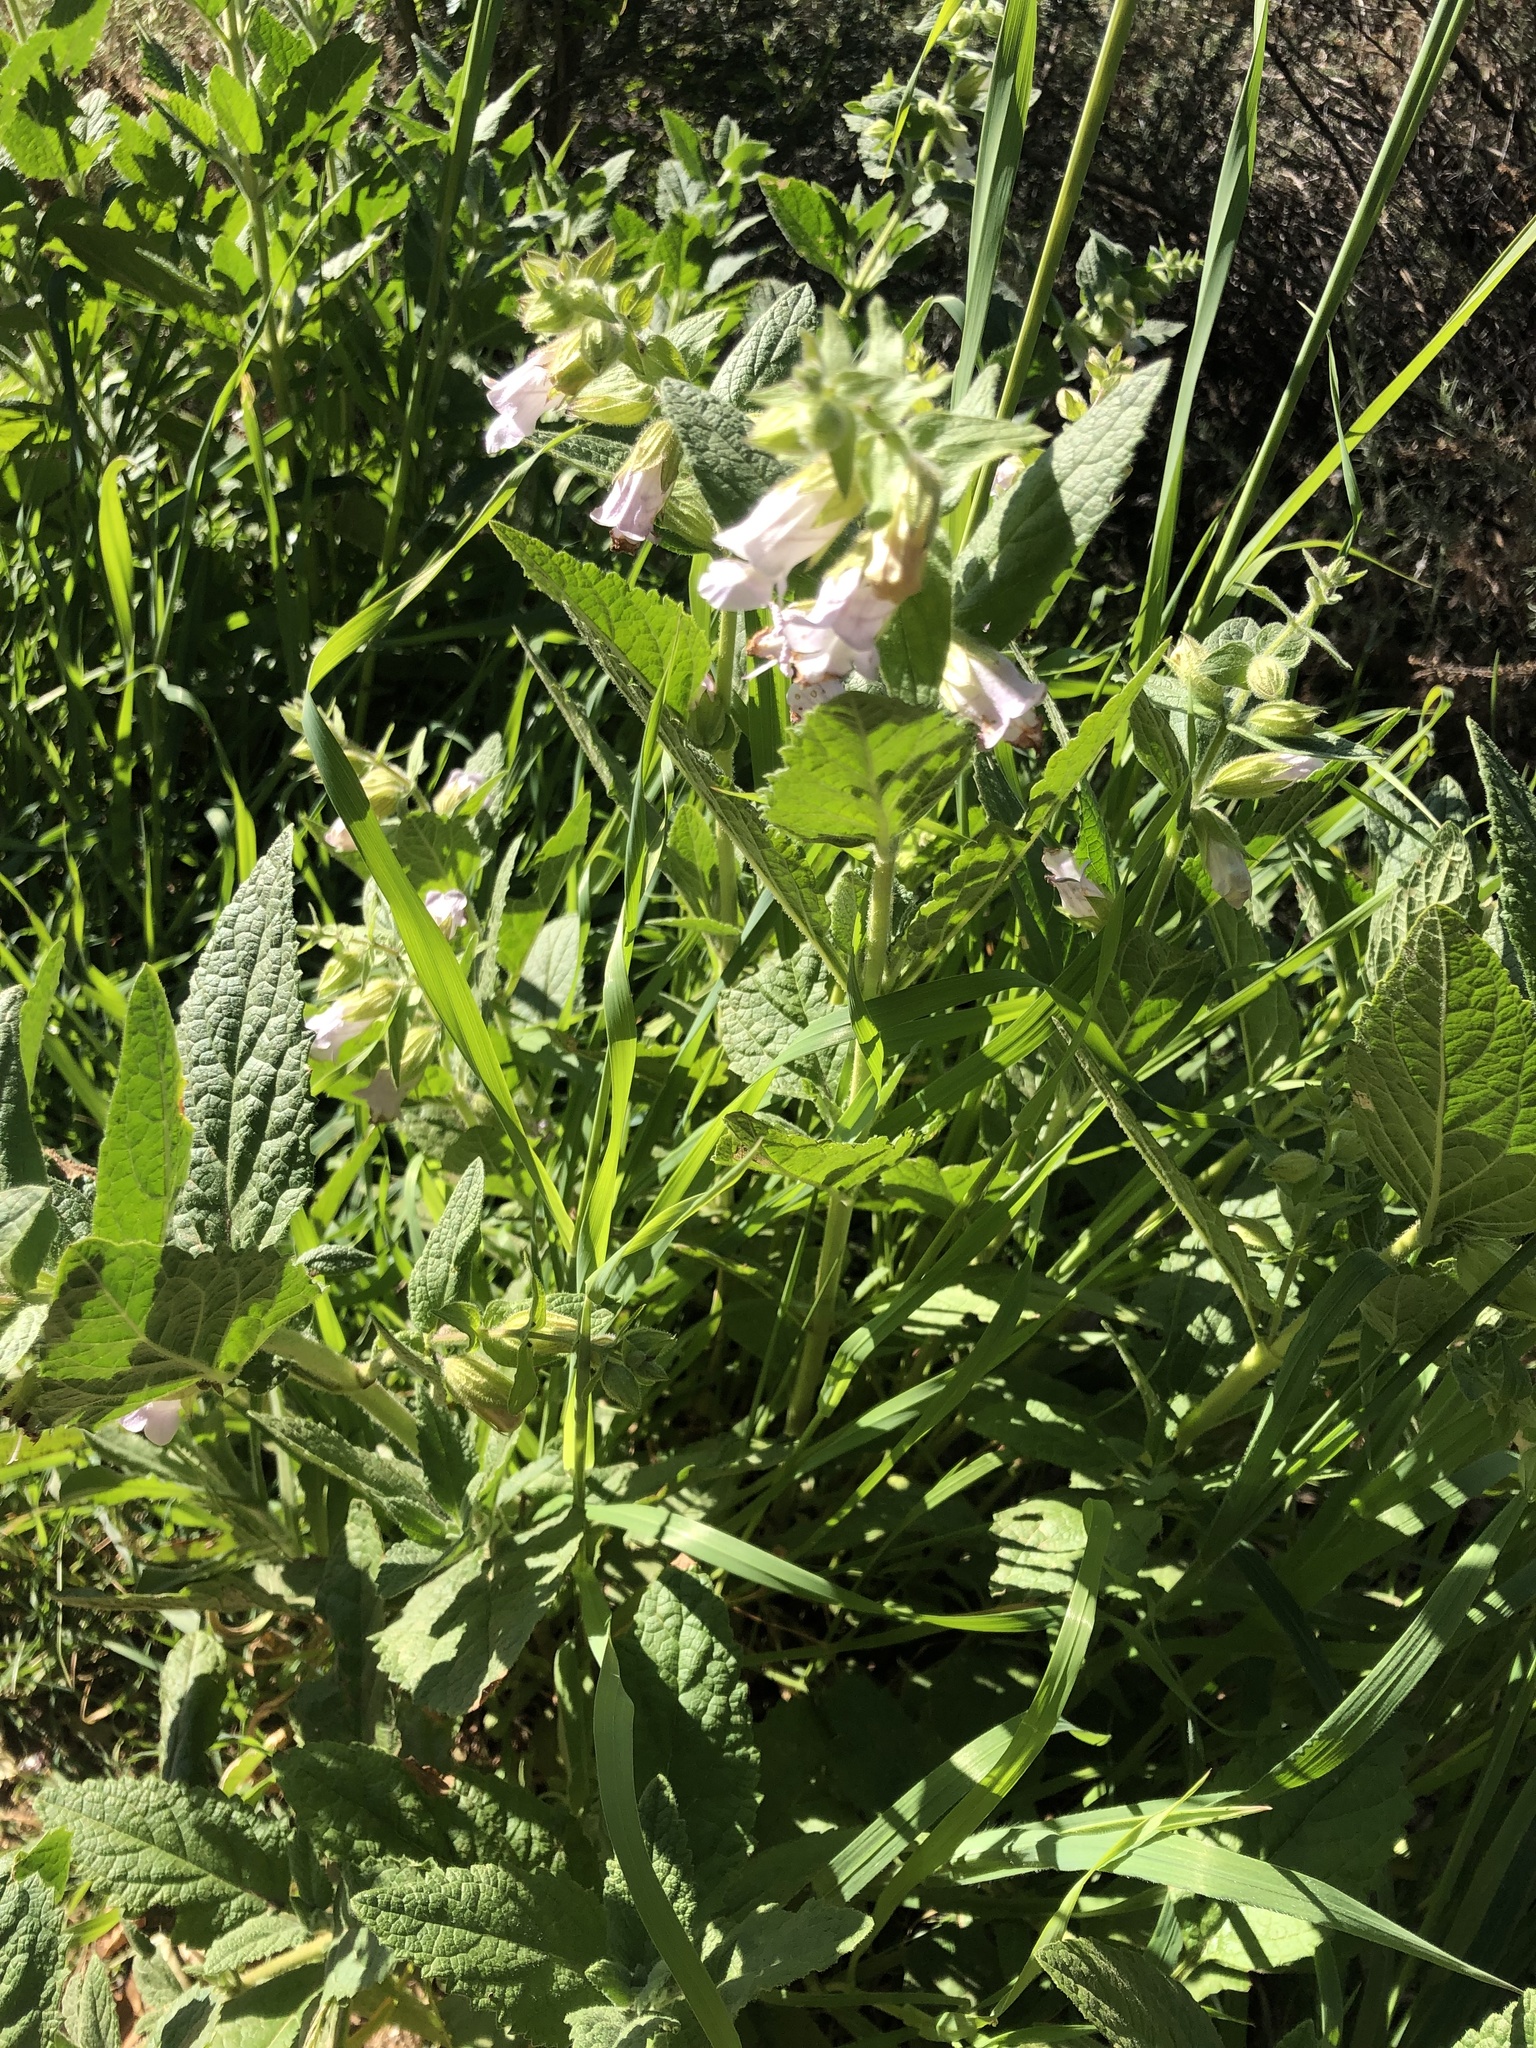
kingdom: Plantae
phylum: Tracheophyta
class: Magnoliopsida
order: Lamiales
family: Lamiaceae
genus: Lepechinia
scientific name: Lepechinia calycina
